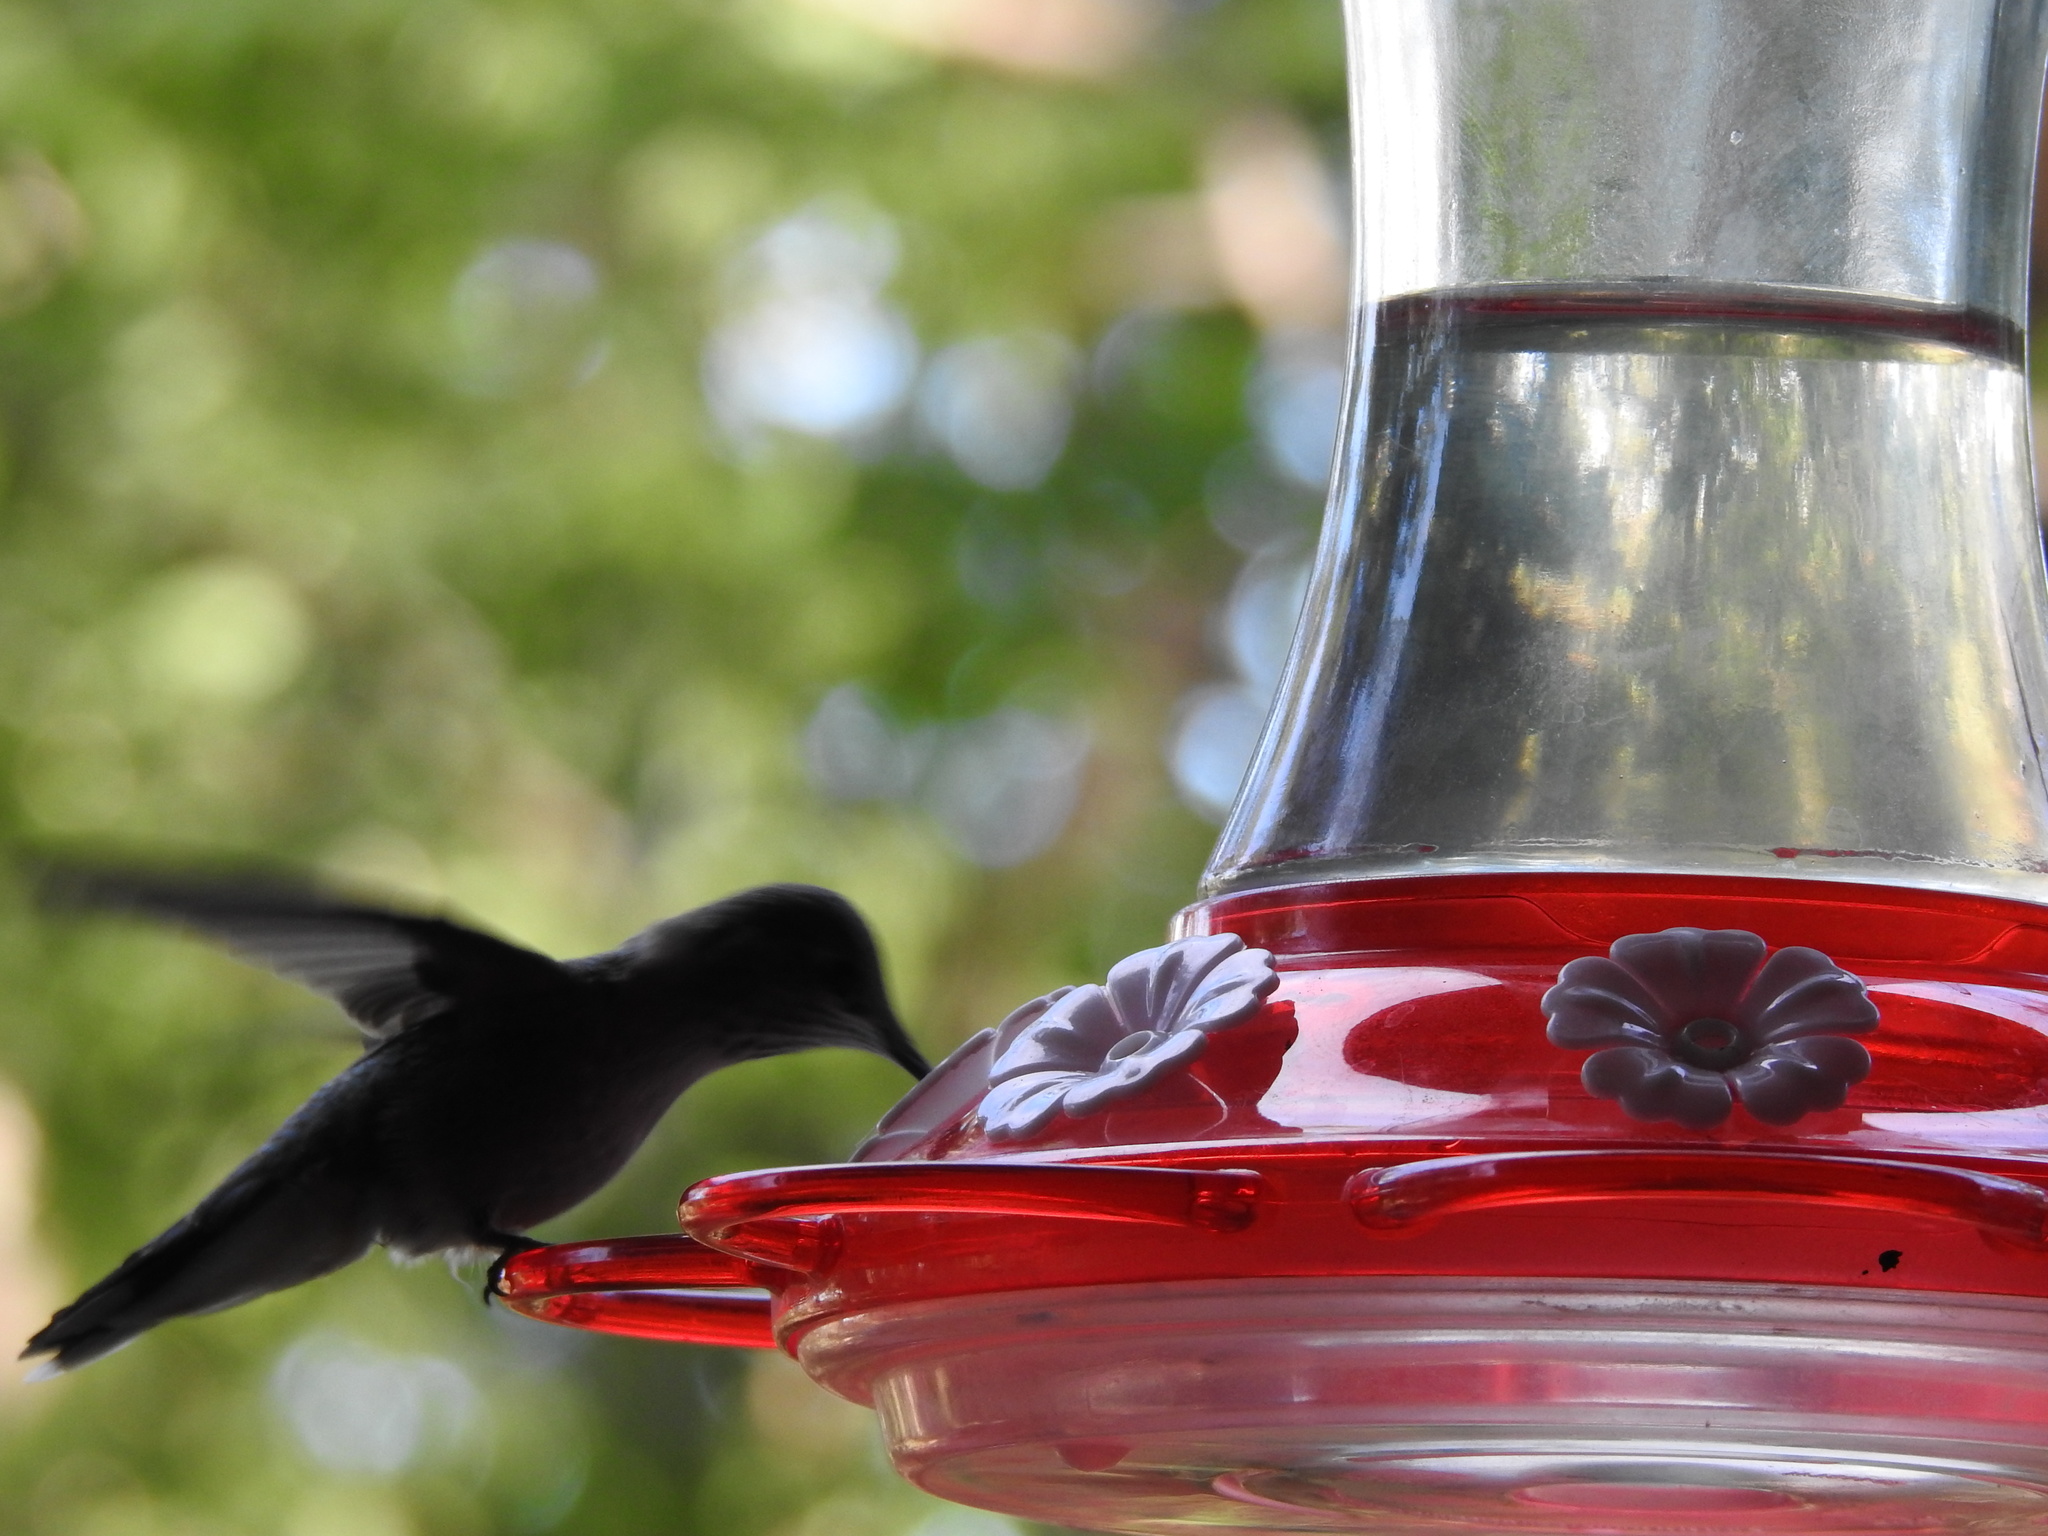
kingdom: Animalia
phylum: Chordata
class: Aves
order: Apodiformes
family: Trochilidae
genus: Selasphorus
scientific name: Selasphorus platycercus
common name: Broad-tailed hummingbird
